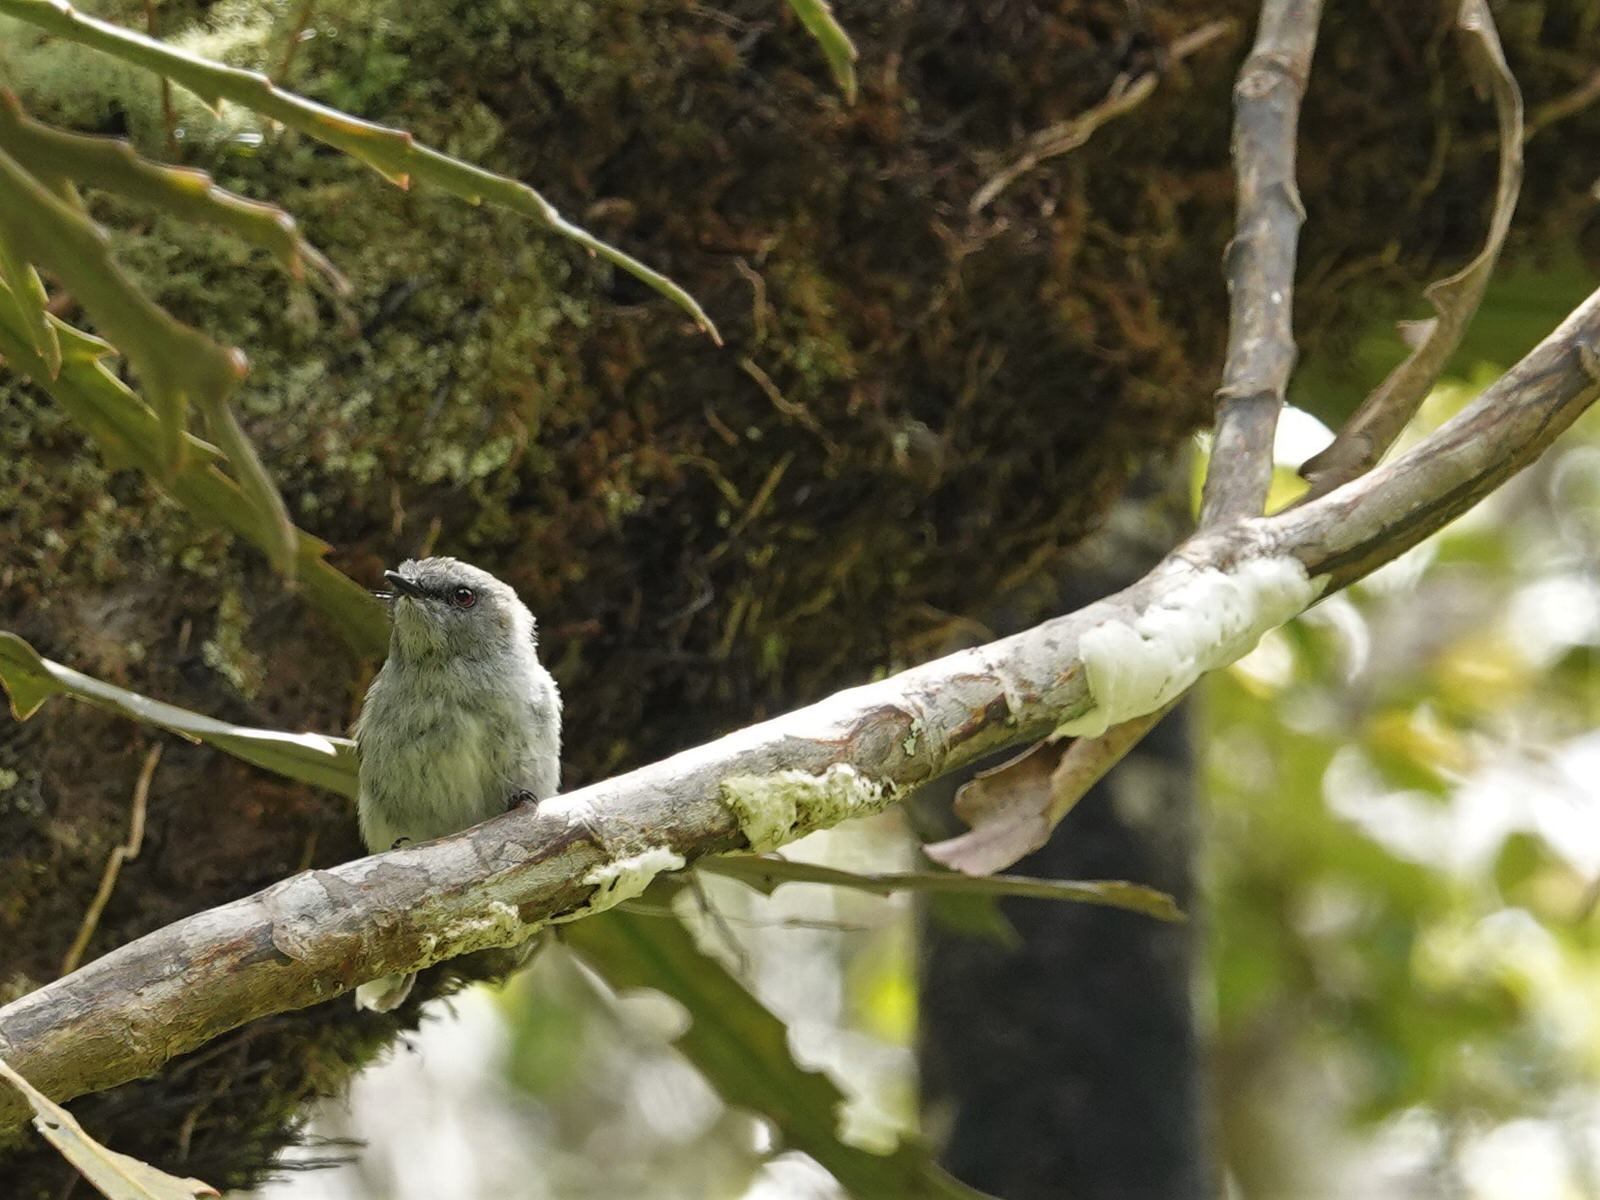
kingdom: Fungi
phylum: Basidiomycota
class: Pucciniomycetes
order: Septobasidiales
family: Septobasidiaceae
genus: Septobasidium
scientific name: Septobasidium simmondsii
